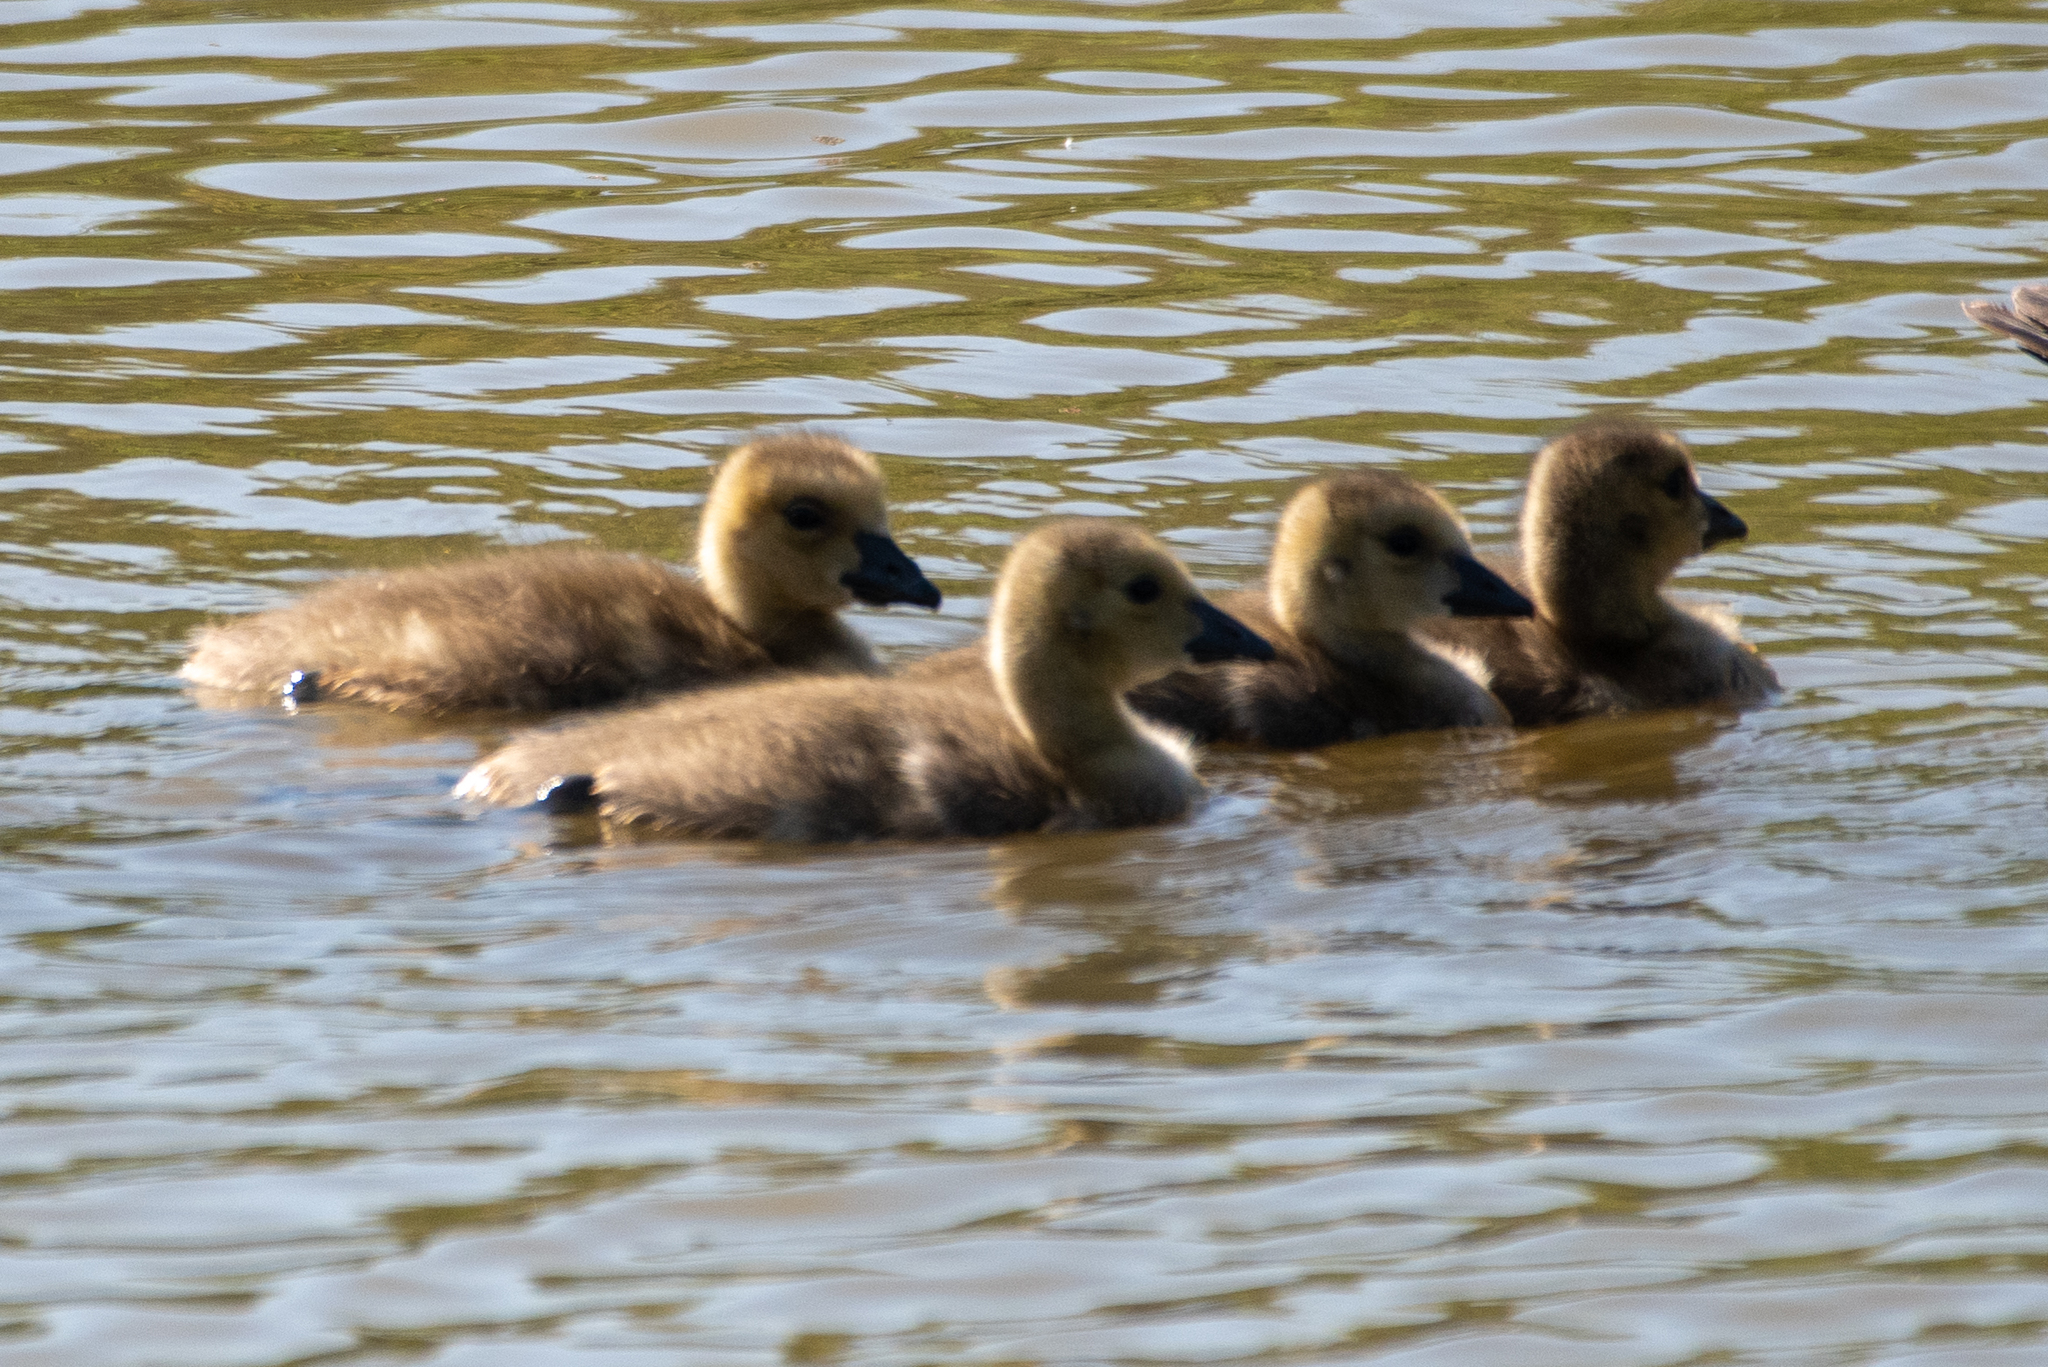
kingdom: Animalia
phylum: Chordata
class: Aves
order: Anseriformes
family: Anatidae
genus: Branta
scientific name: Branta canadensis
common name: Canada goose
